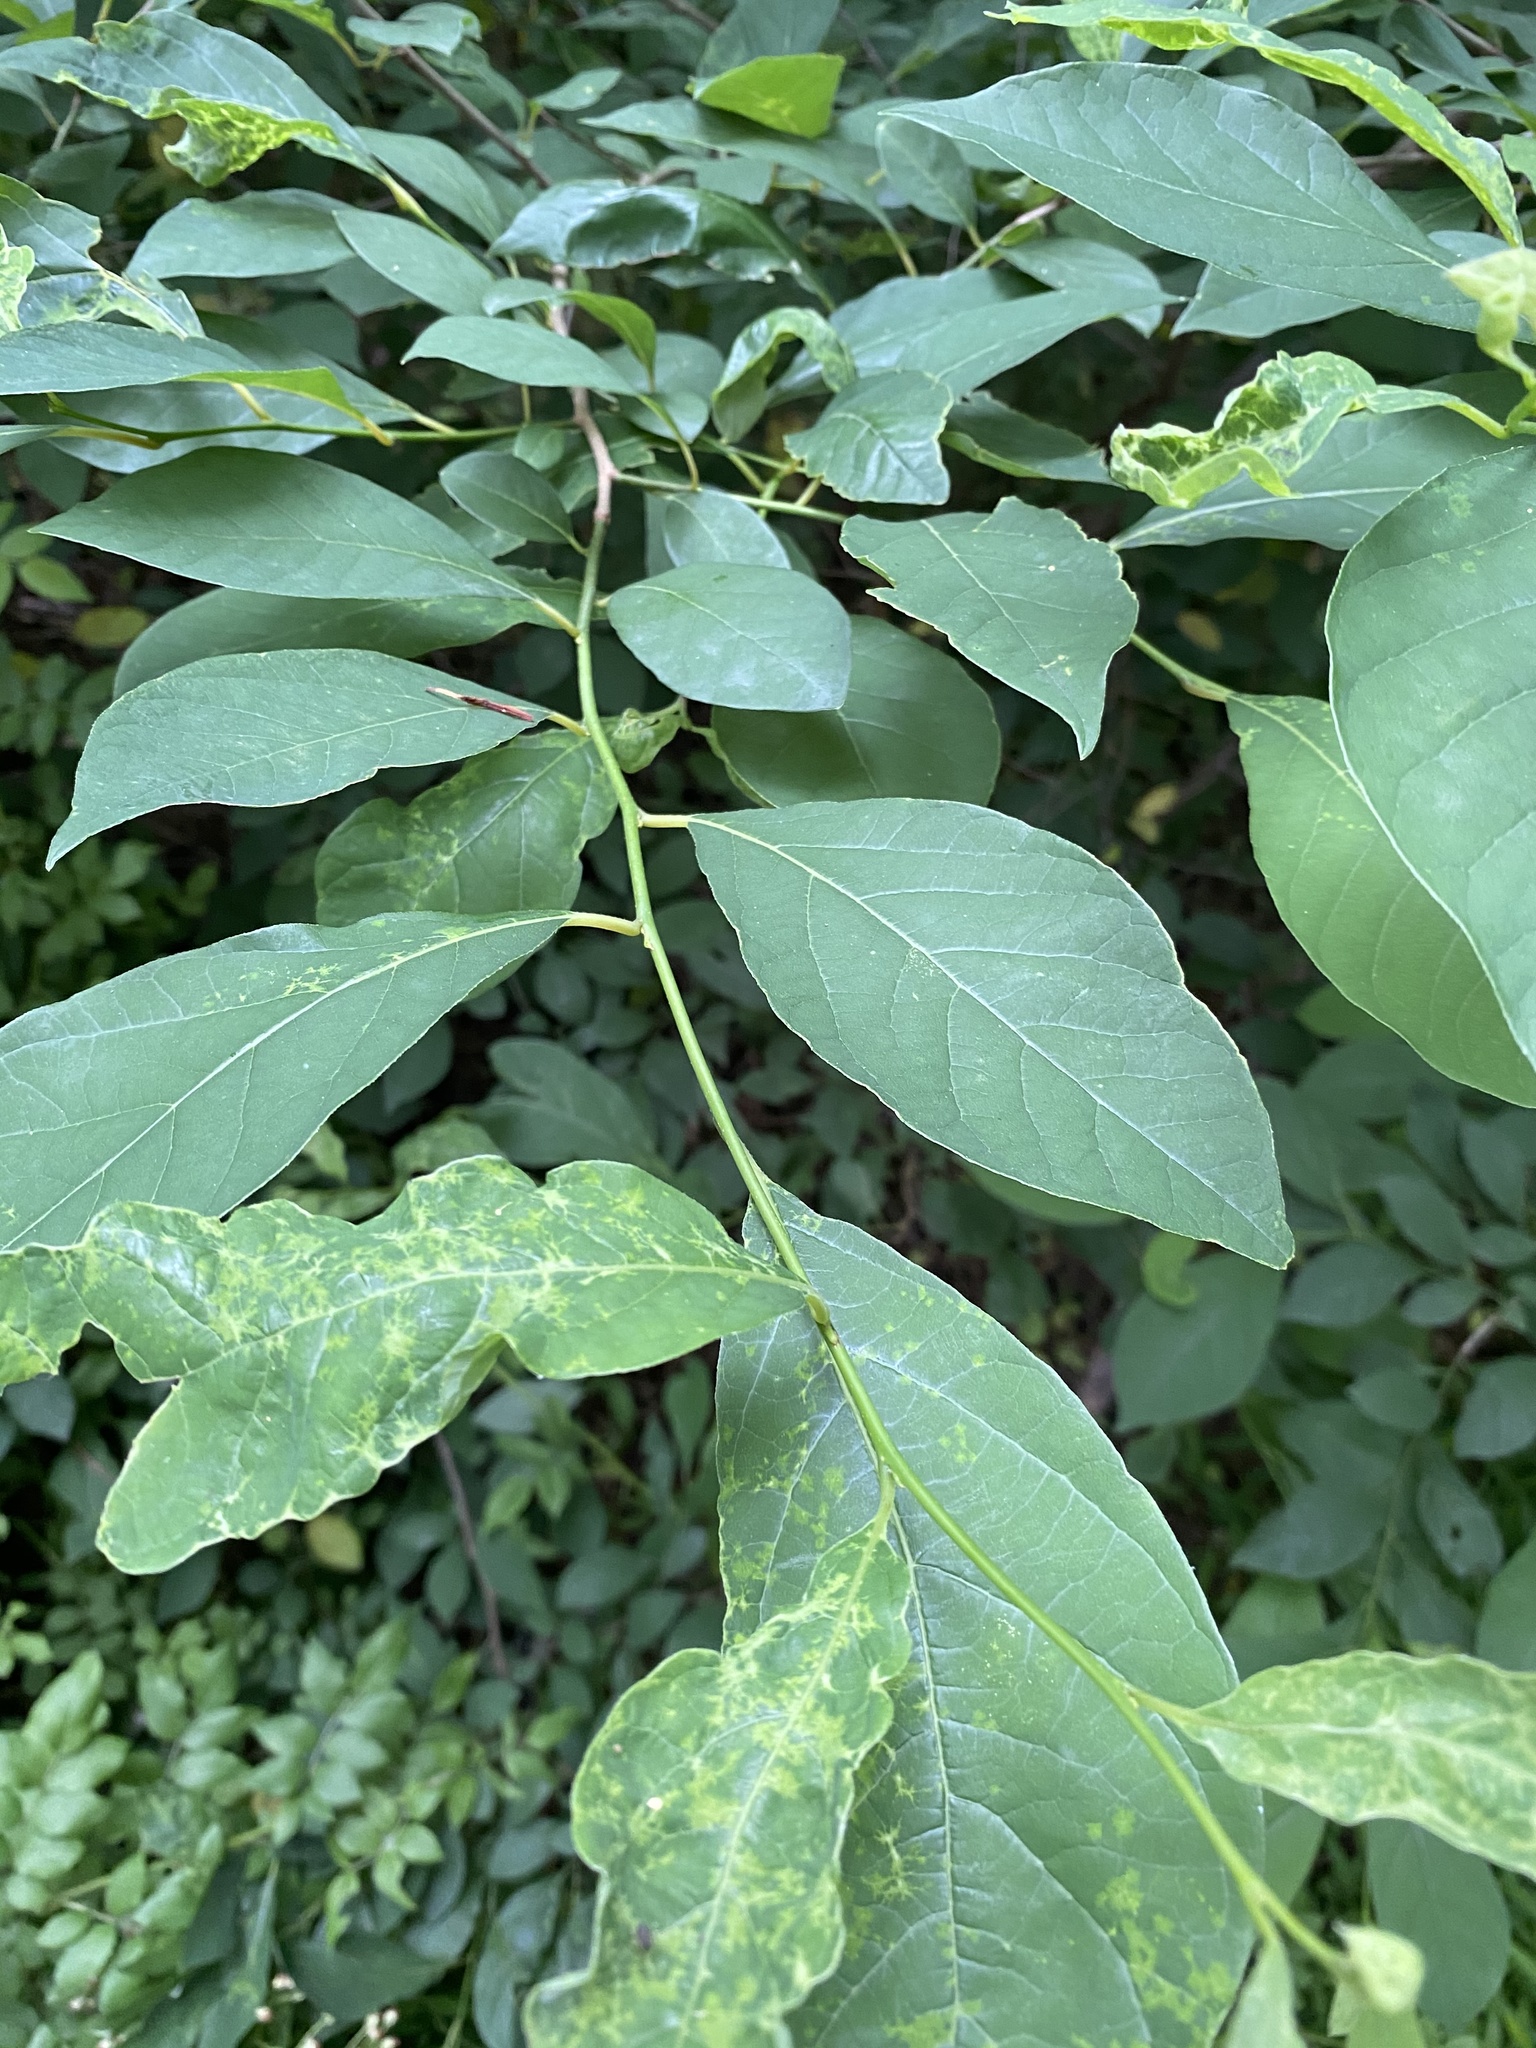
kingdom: Plantae
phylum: Tracheophyta
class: Magnoliopsida
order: Laurales
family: Lauraceae
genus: Lindera
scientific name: Lindera benzoin
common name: Spicebush
